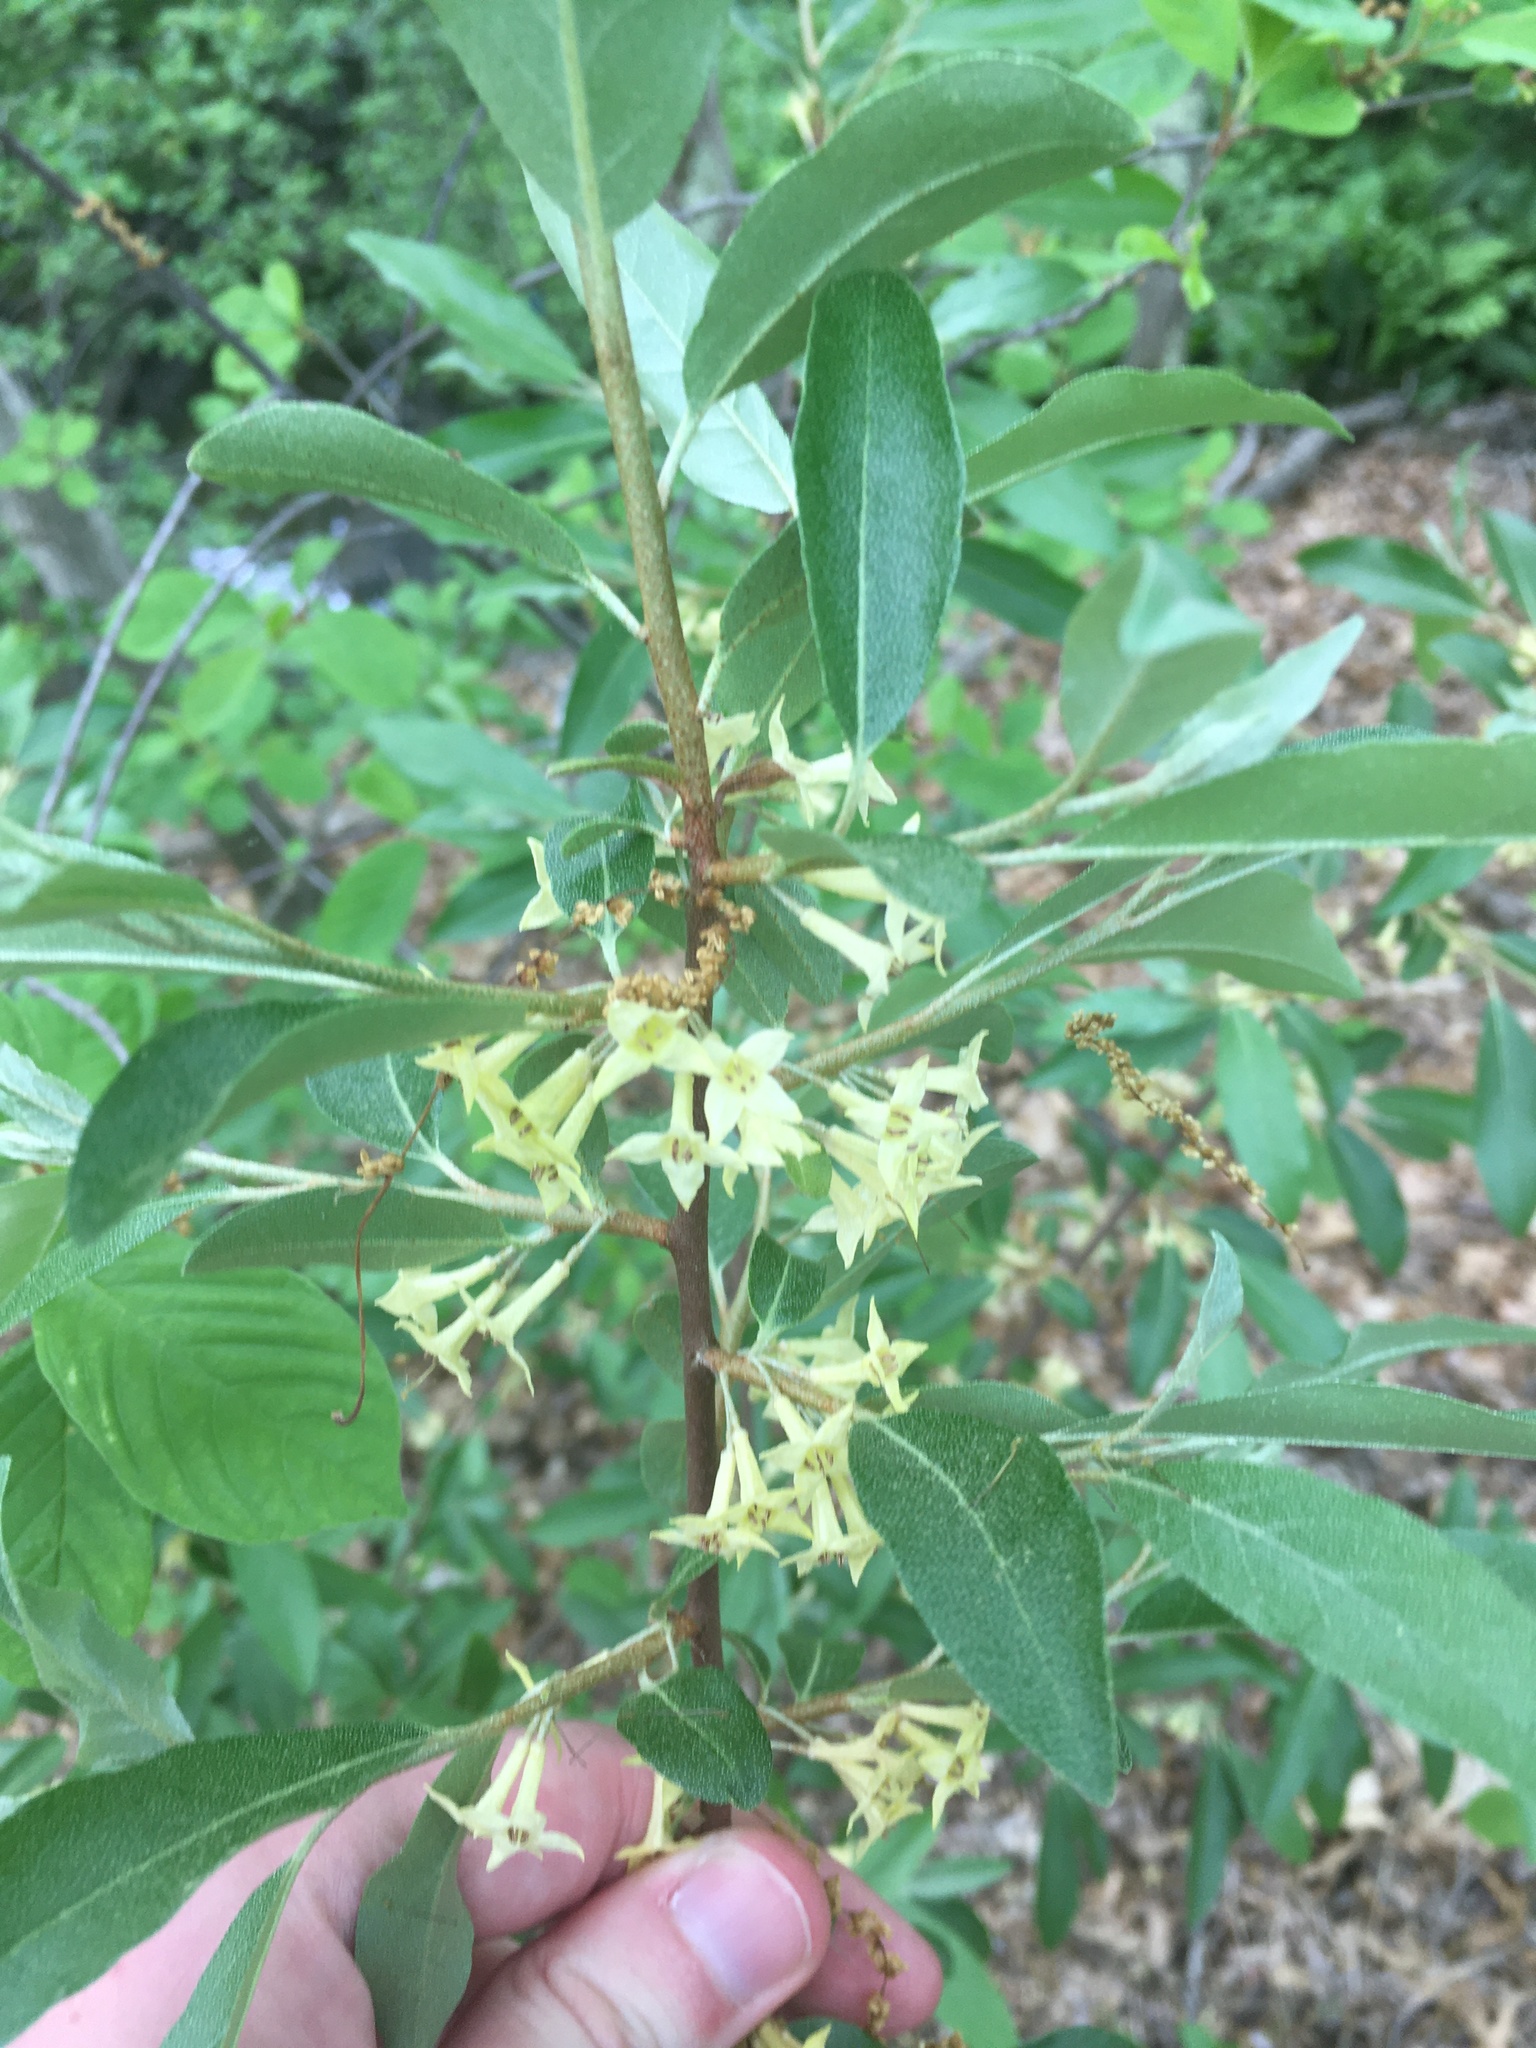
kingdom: Plantae
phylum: Tracheophyta
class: Magnoliopsida
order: Rosales
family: Elaeagnaceae
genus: Elaeagnus
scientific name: Elaeagnus umbellata
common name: Autumn olive
